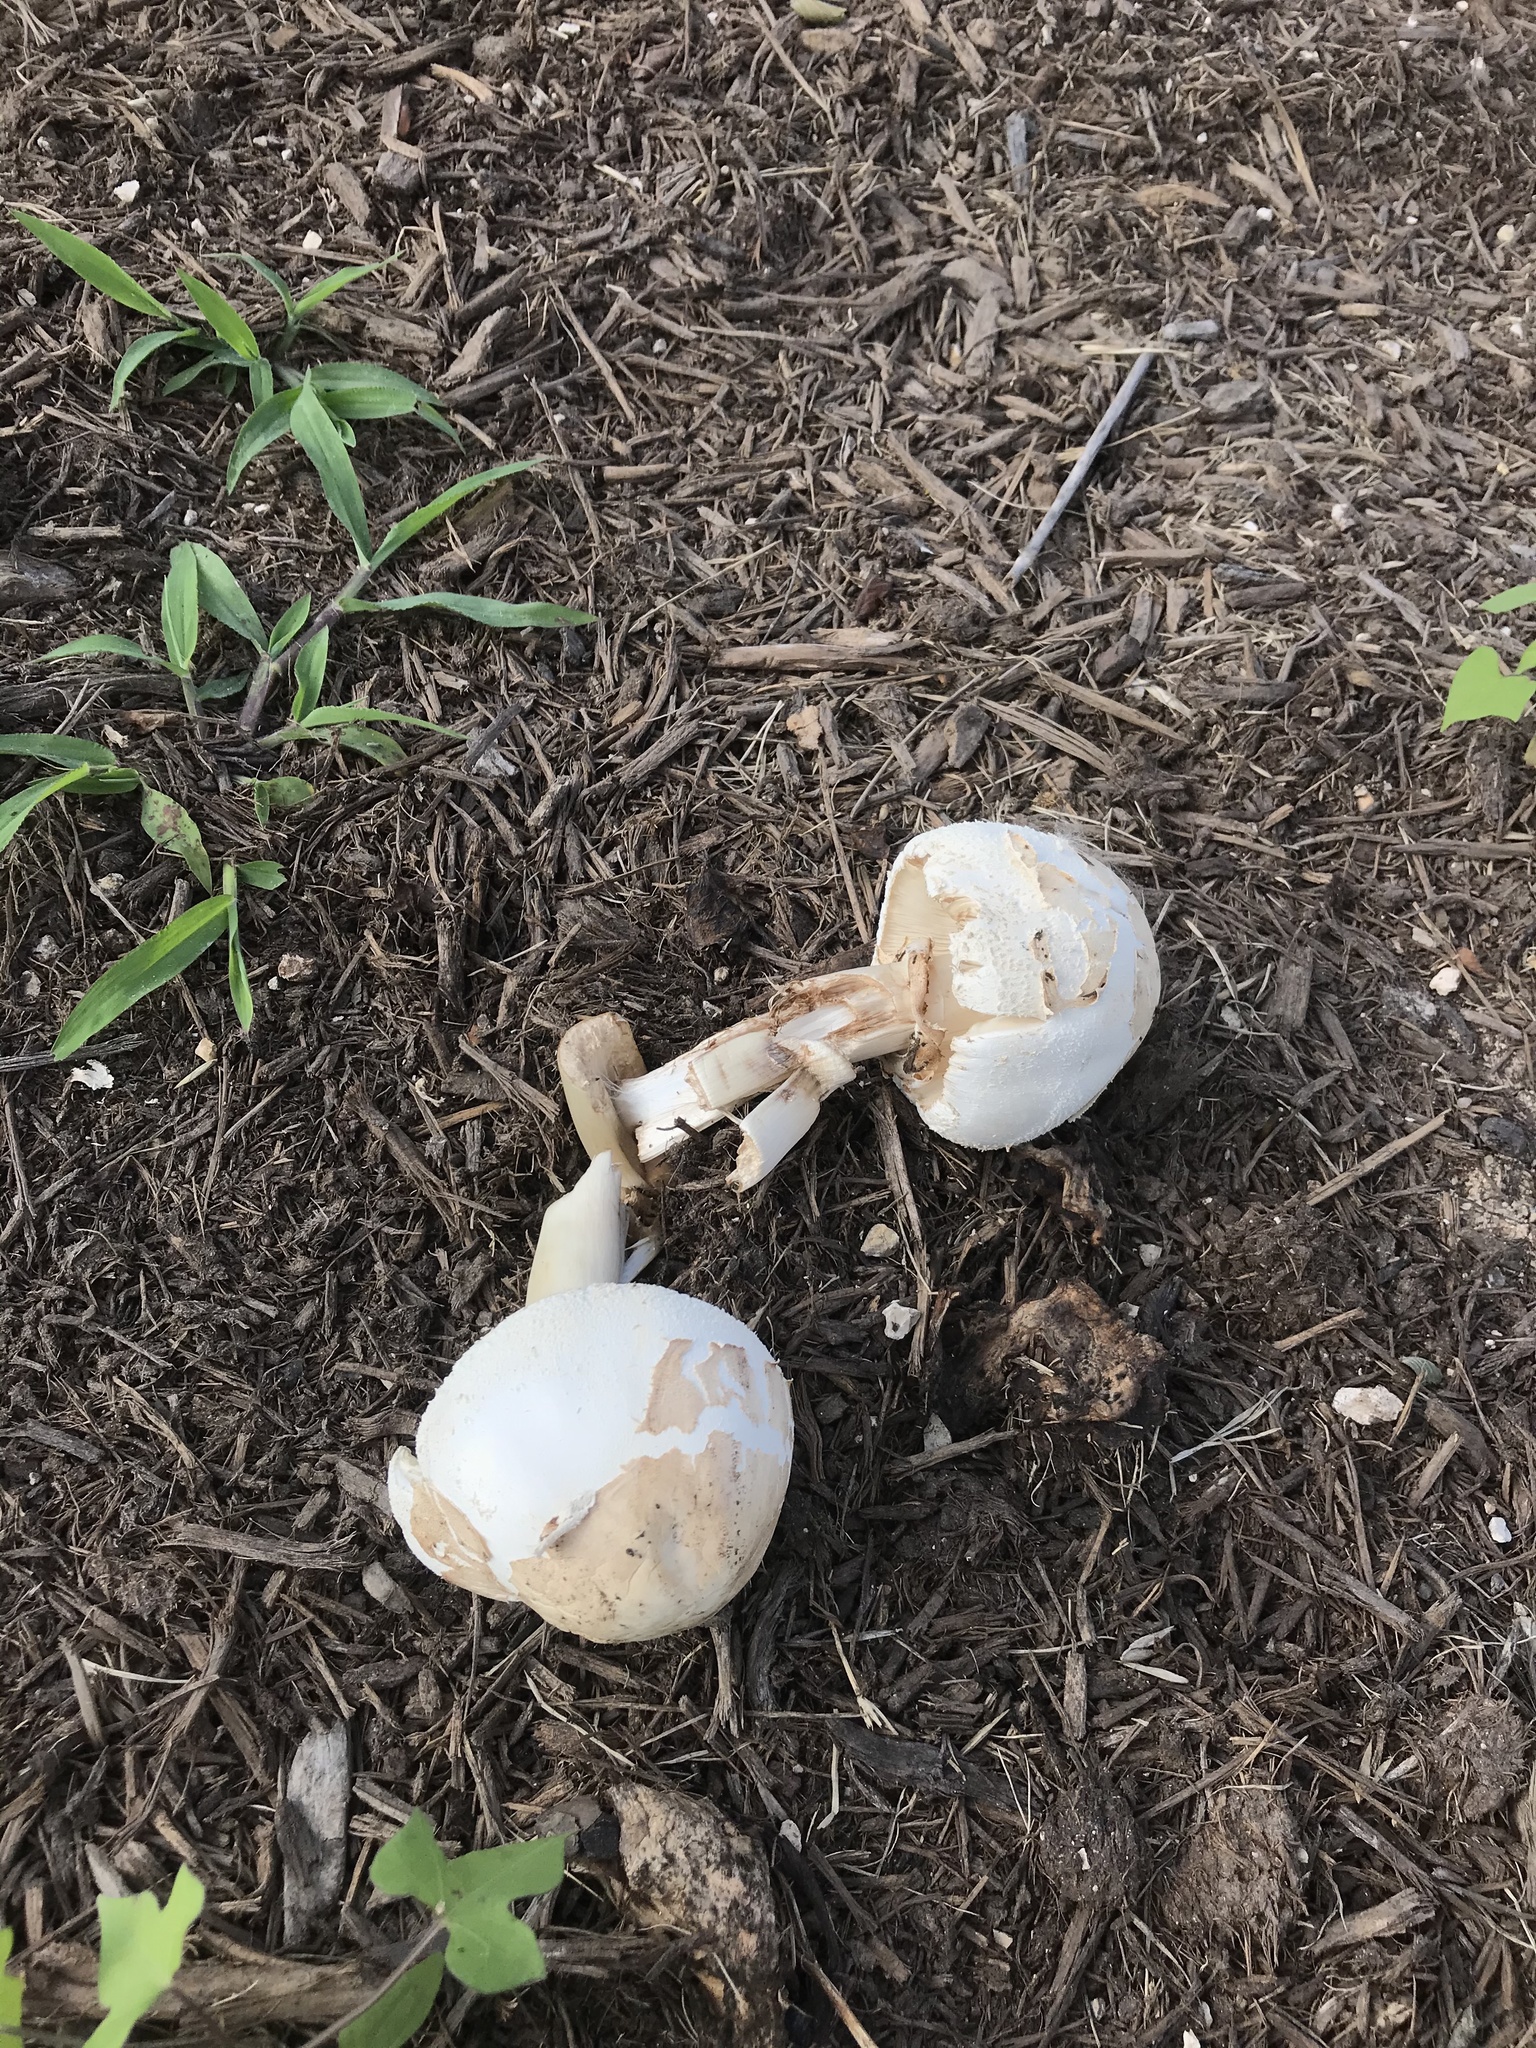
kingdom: Fungi
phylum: Basidiomycota
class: Agaricomycetes
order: Agaricales
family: Agaricaceae
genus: Chlorophyllum
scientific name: Chlorophyllum molybdites
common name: False parasol
